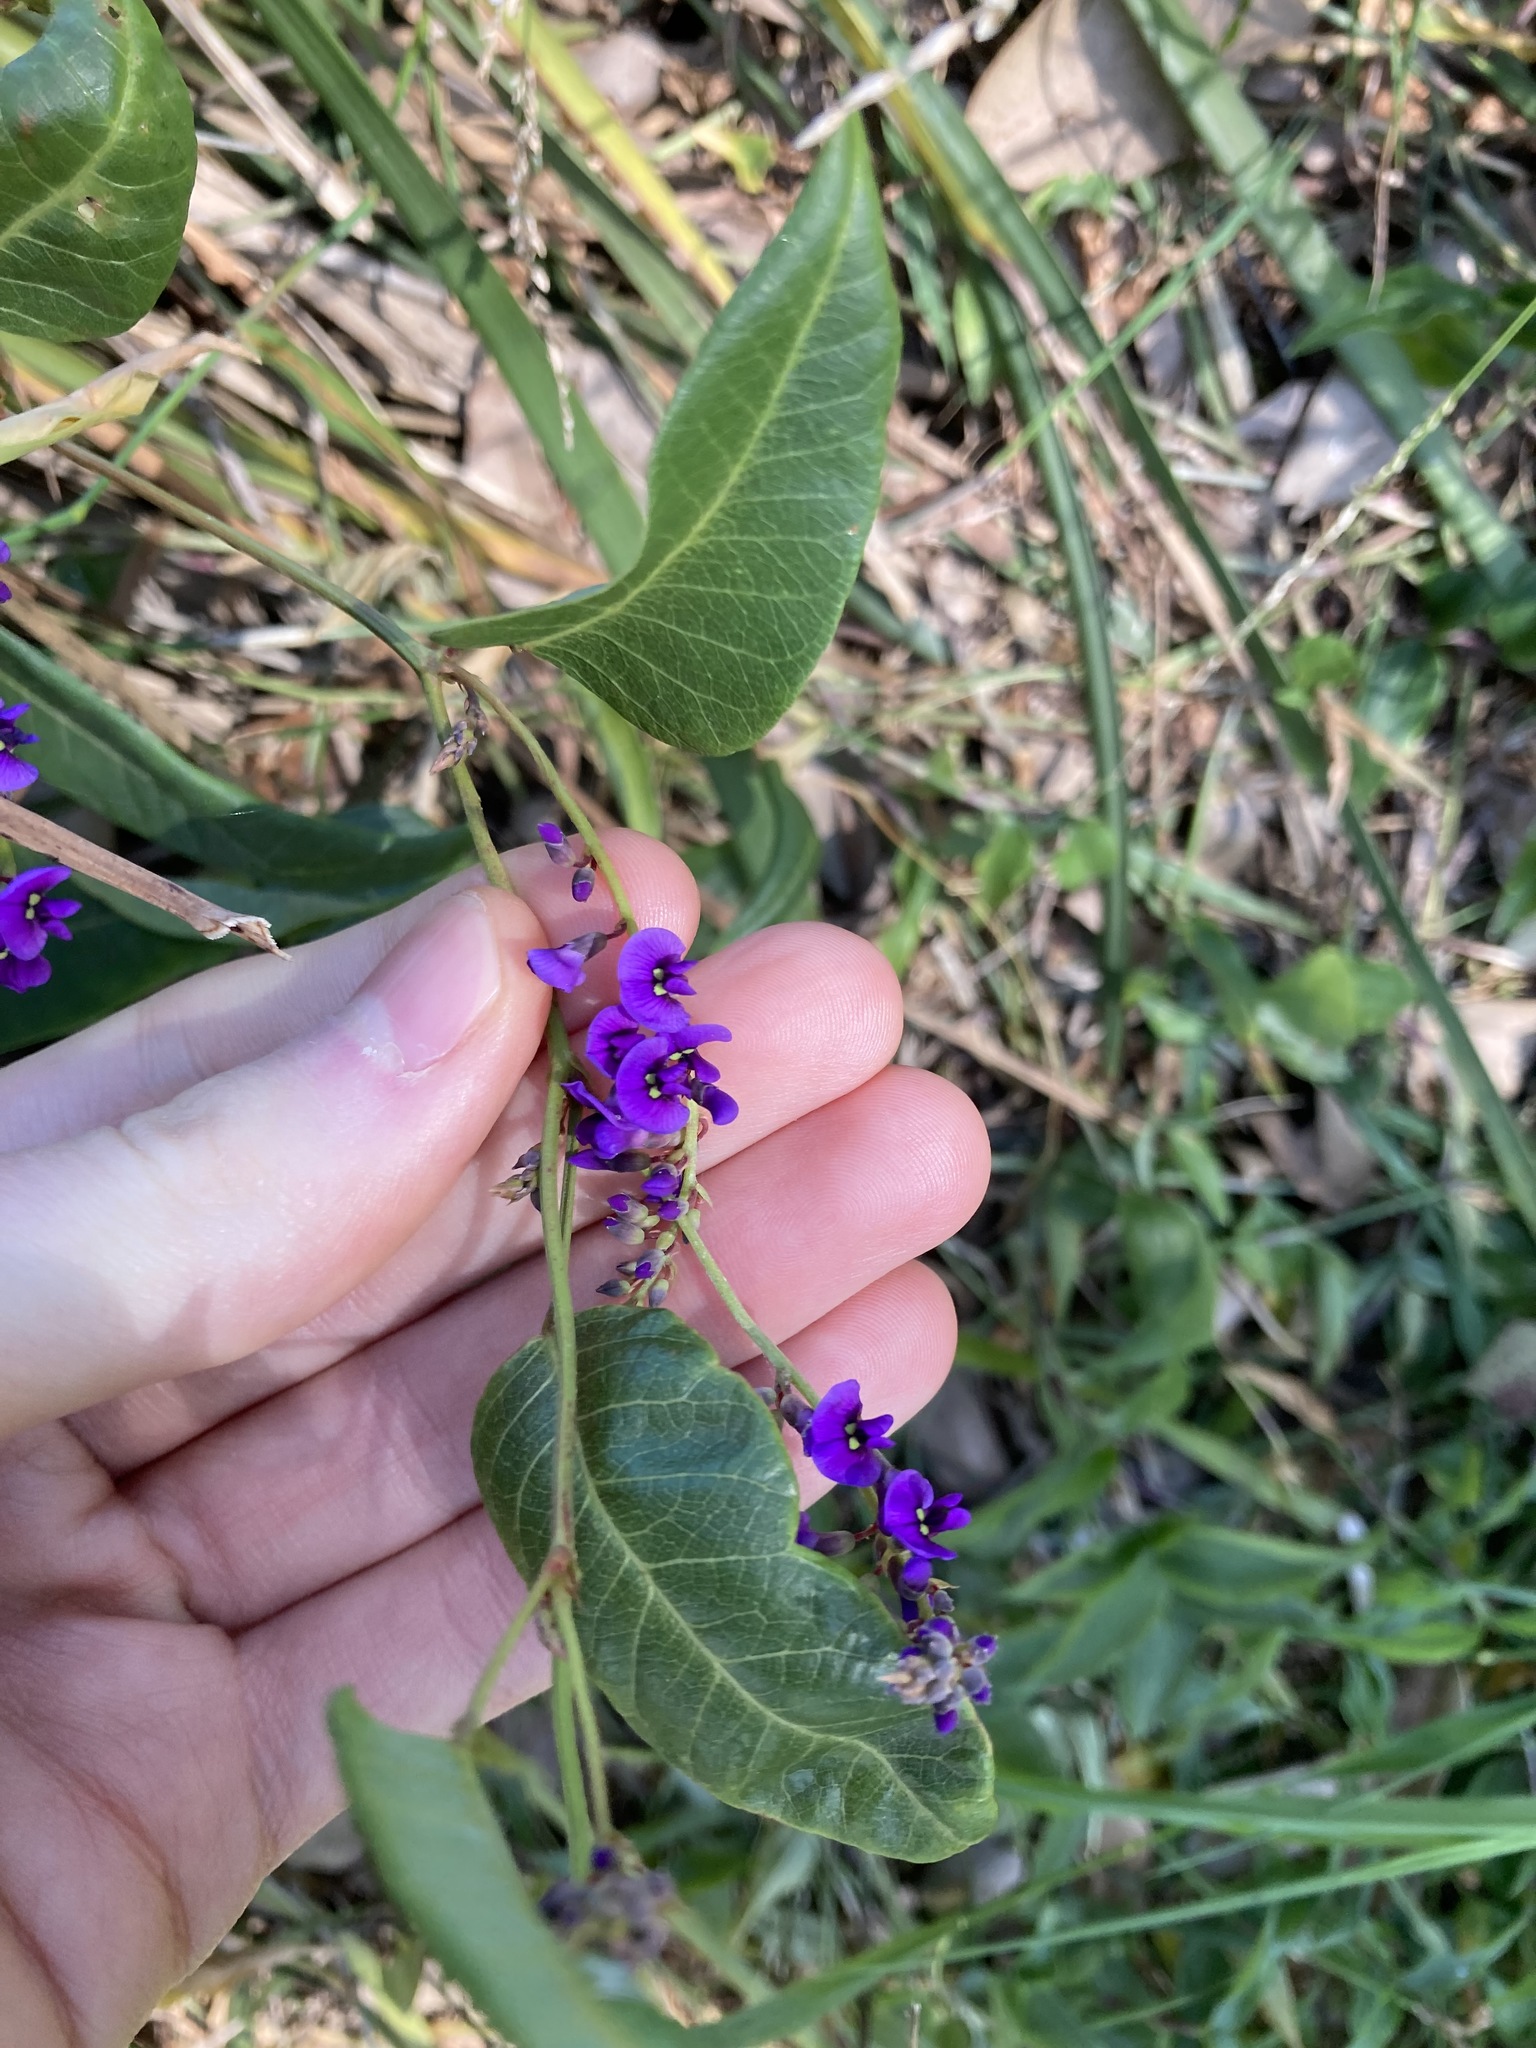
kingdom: Plantae
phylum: Tracheophyta
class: Magnoliopsida
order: Fabales
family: Fabaceae
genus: Hardenbergia
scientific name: Hardenbergia violacea
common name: Coral-pea
